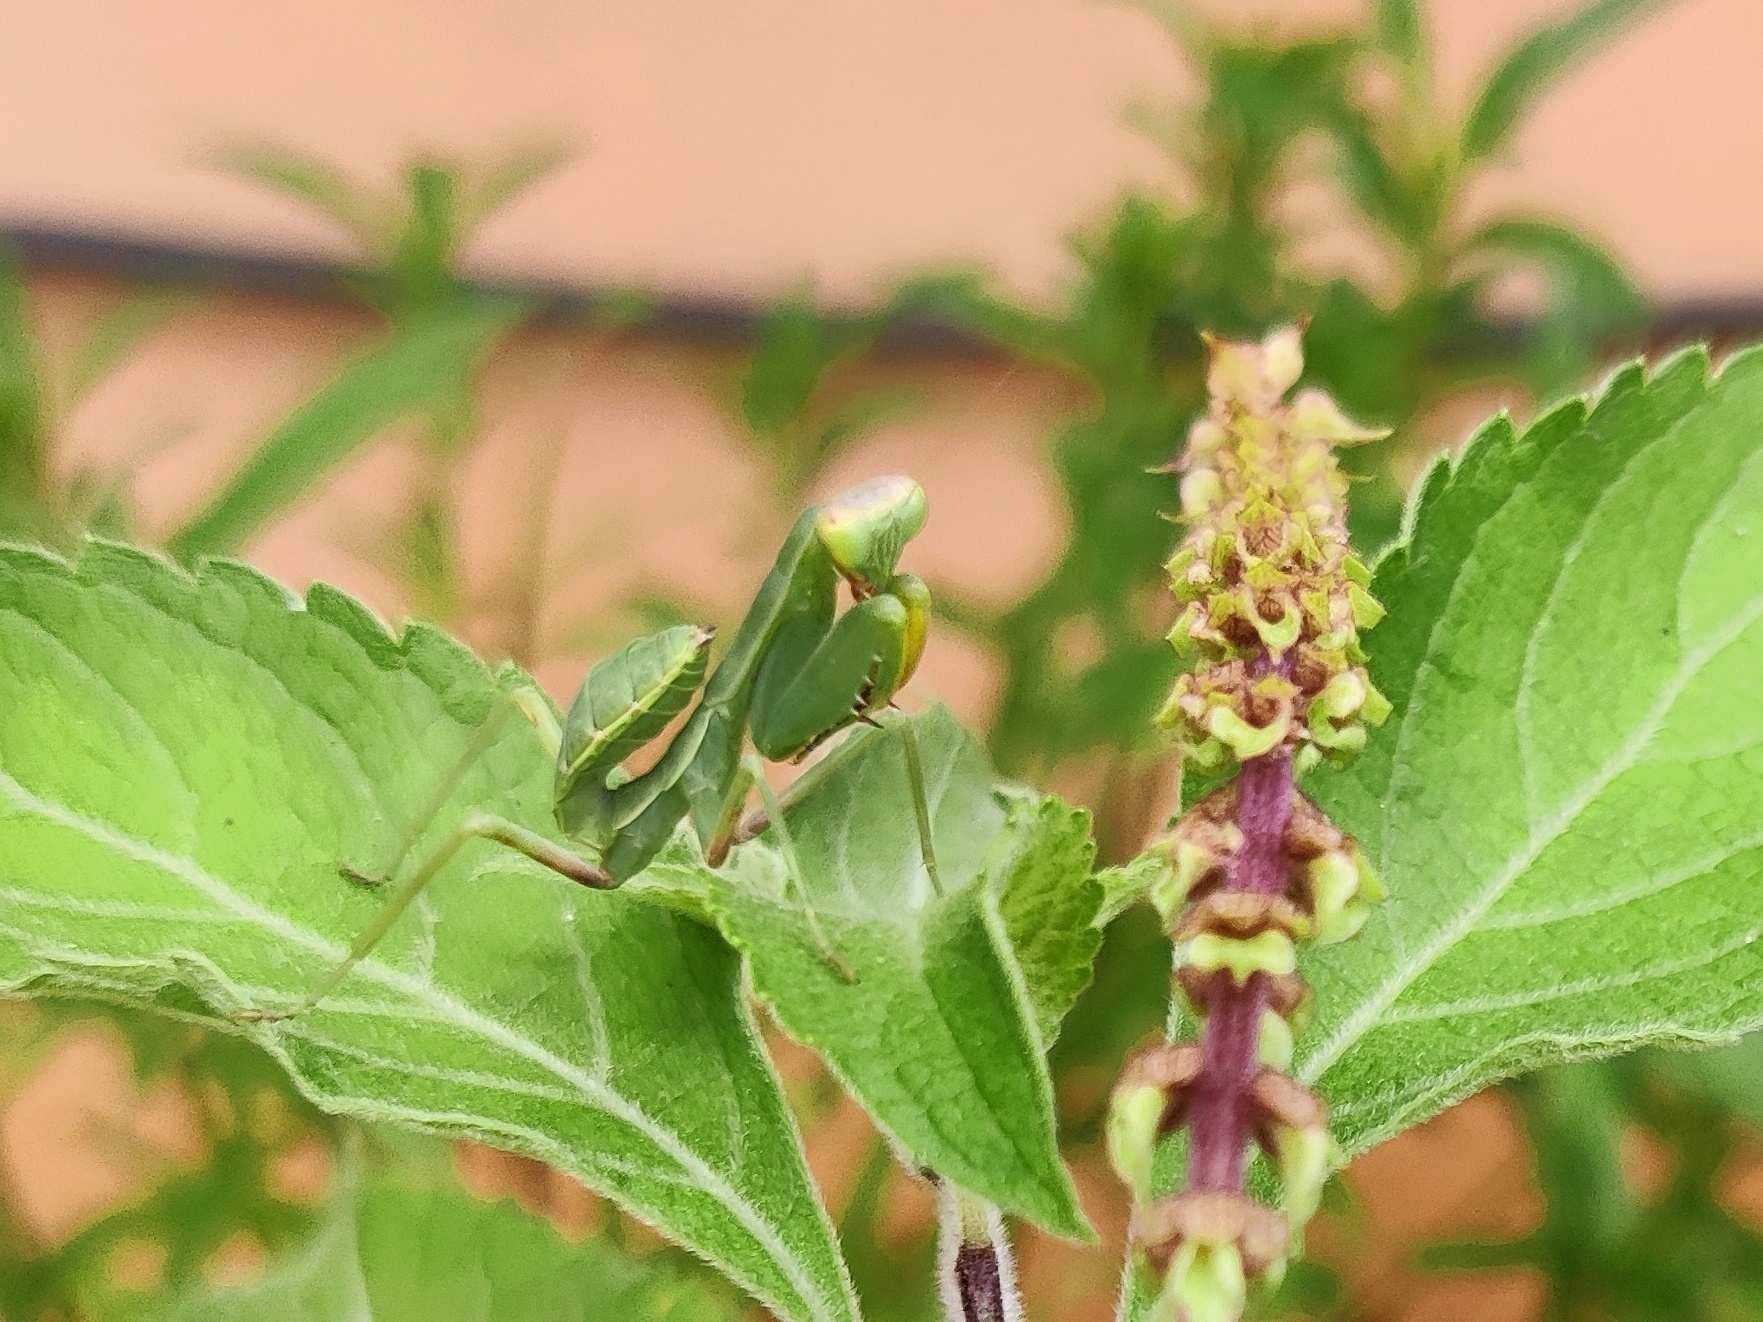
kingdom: Animalia
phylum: Arthropoda
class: Insecta
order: Mantodea
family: Mantidae
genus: Hierodula
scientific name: Hierodula tenuidentata
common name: Giant asian mantis
